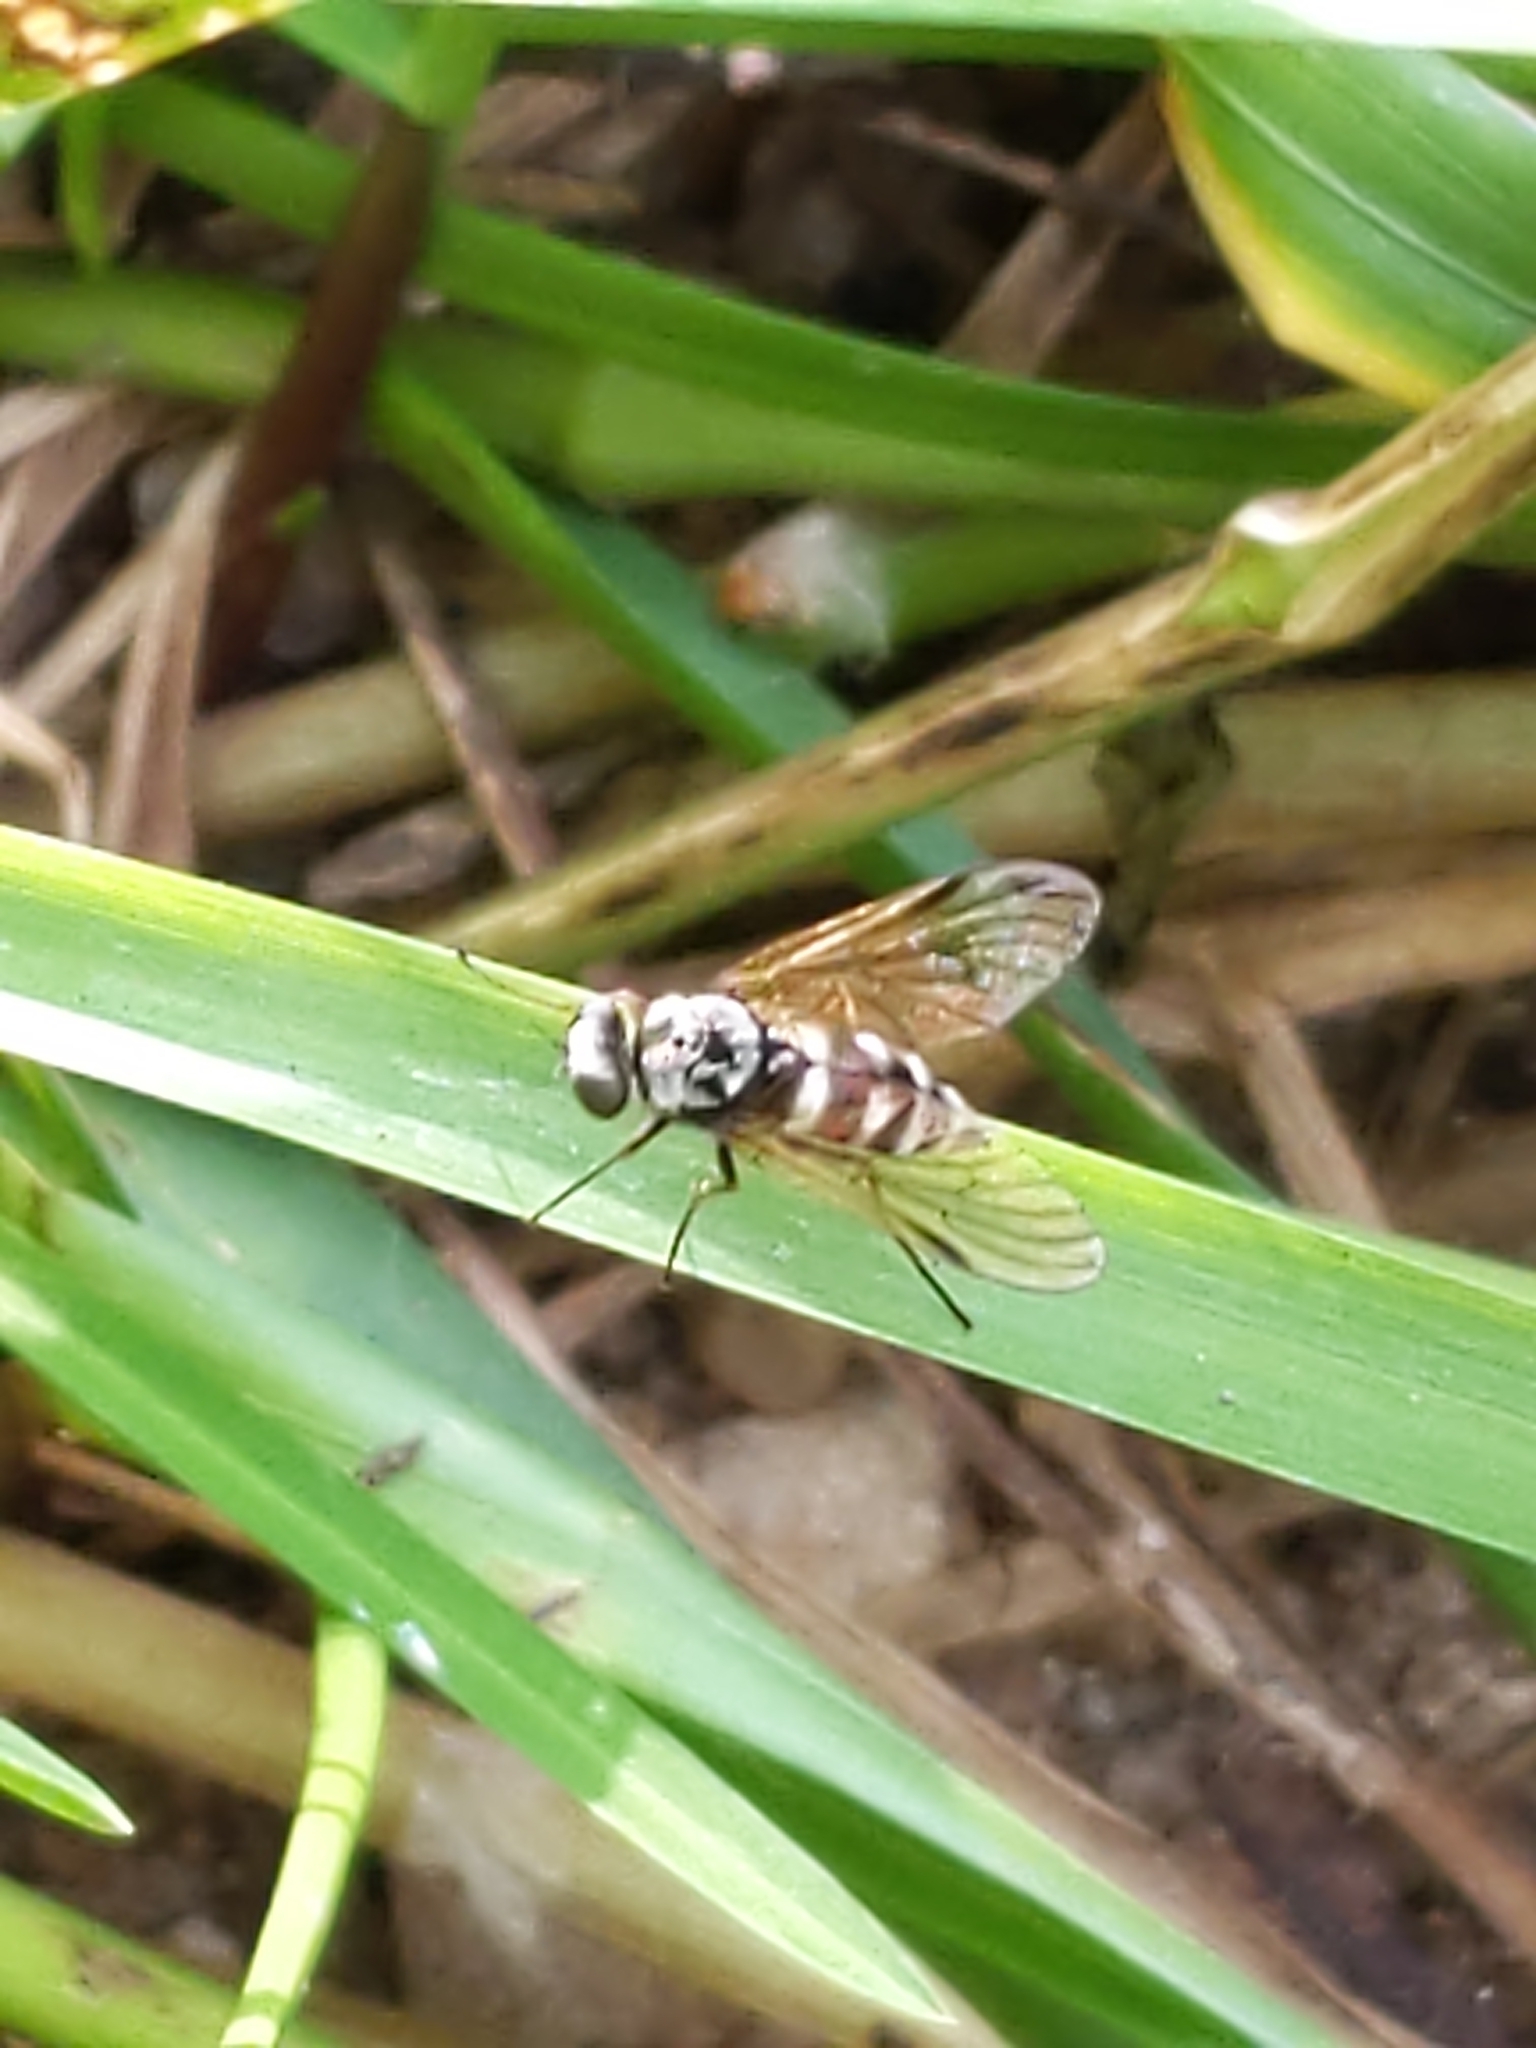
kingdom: Animalia
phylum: Arthropoda
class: Insecta
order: Diptera
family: Rhagionidae
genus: Chrysopilus
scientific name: Chrysopilus fasciatus
